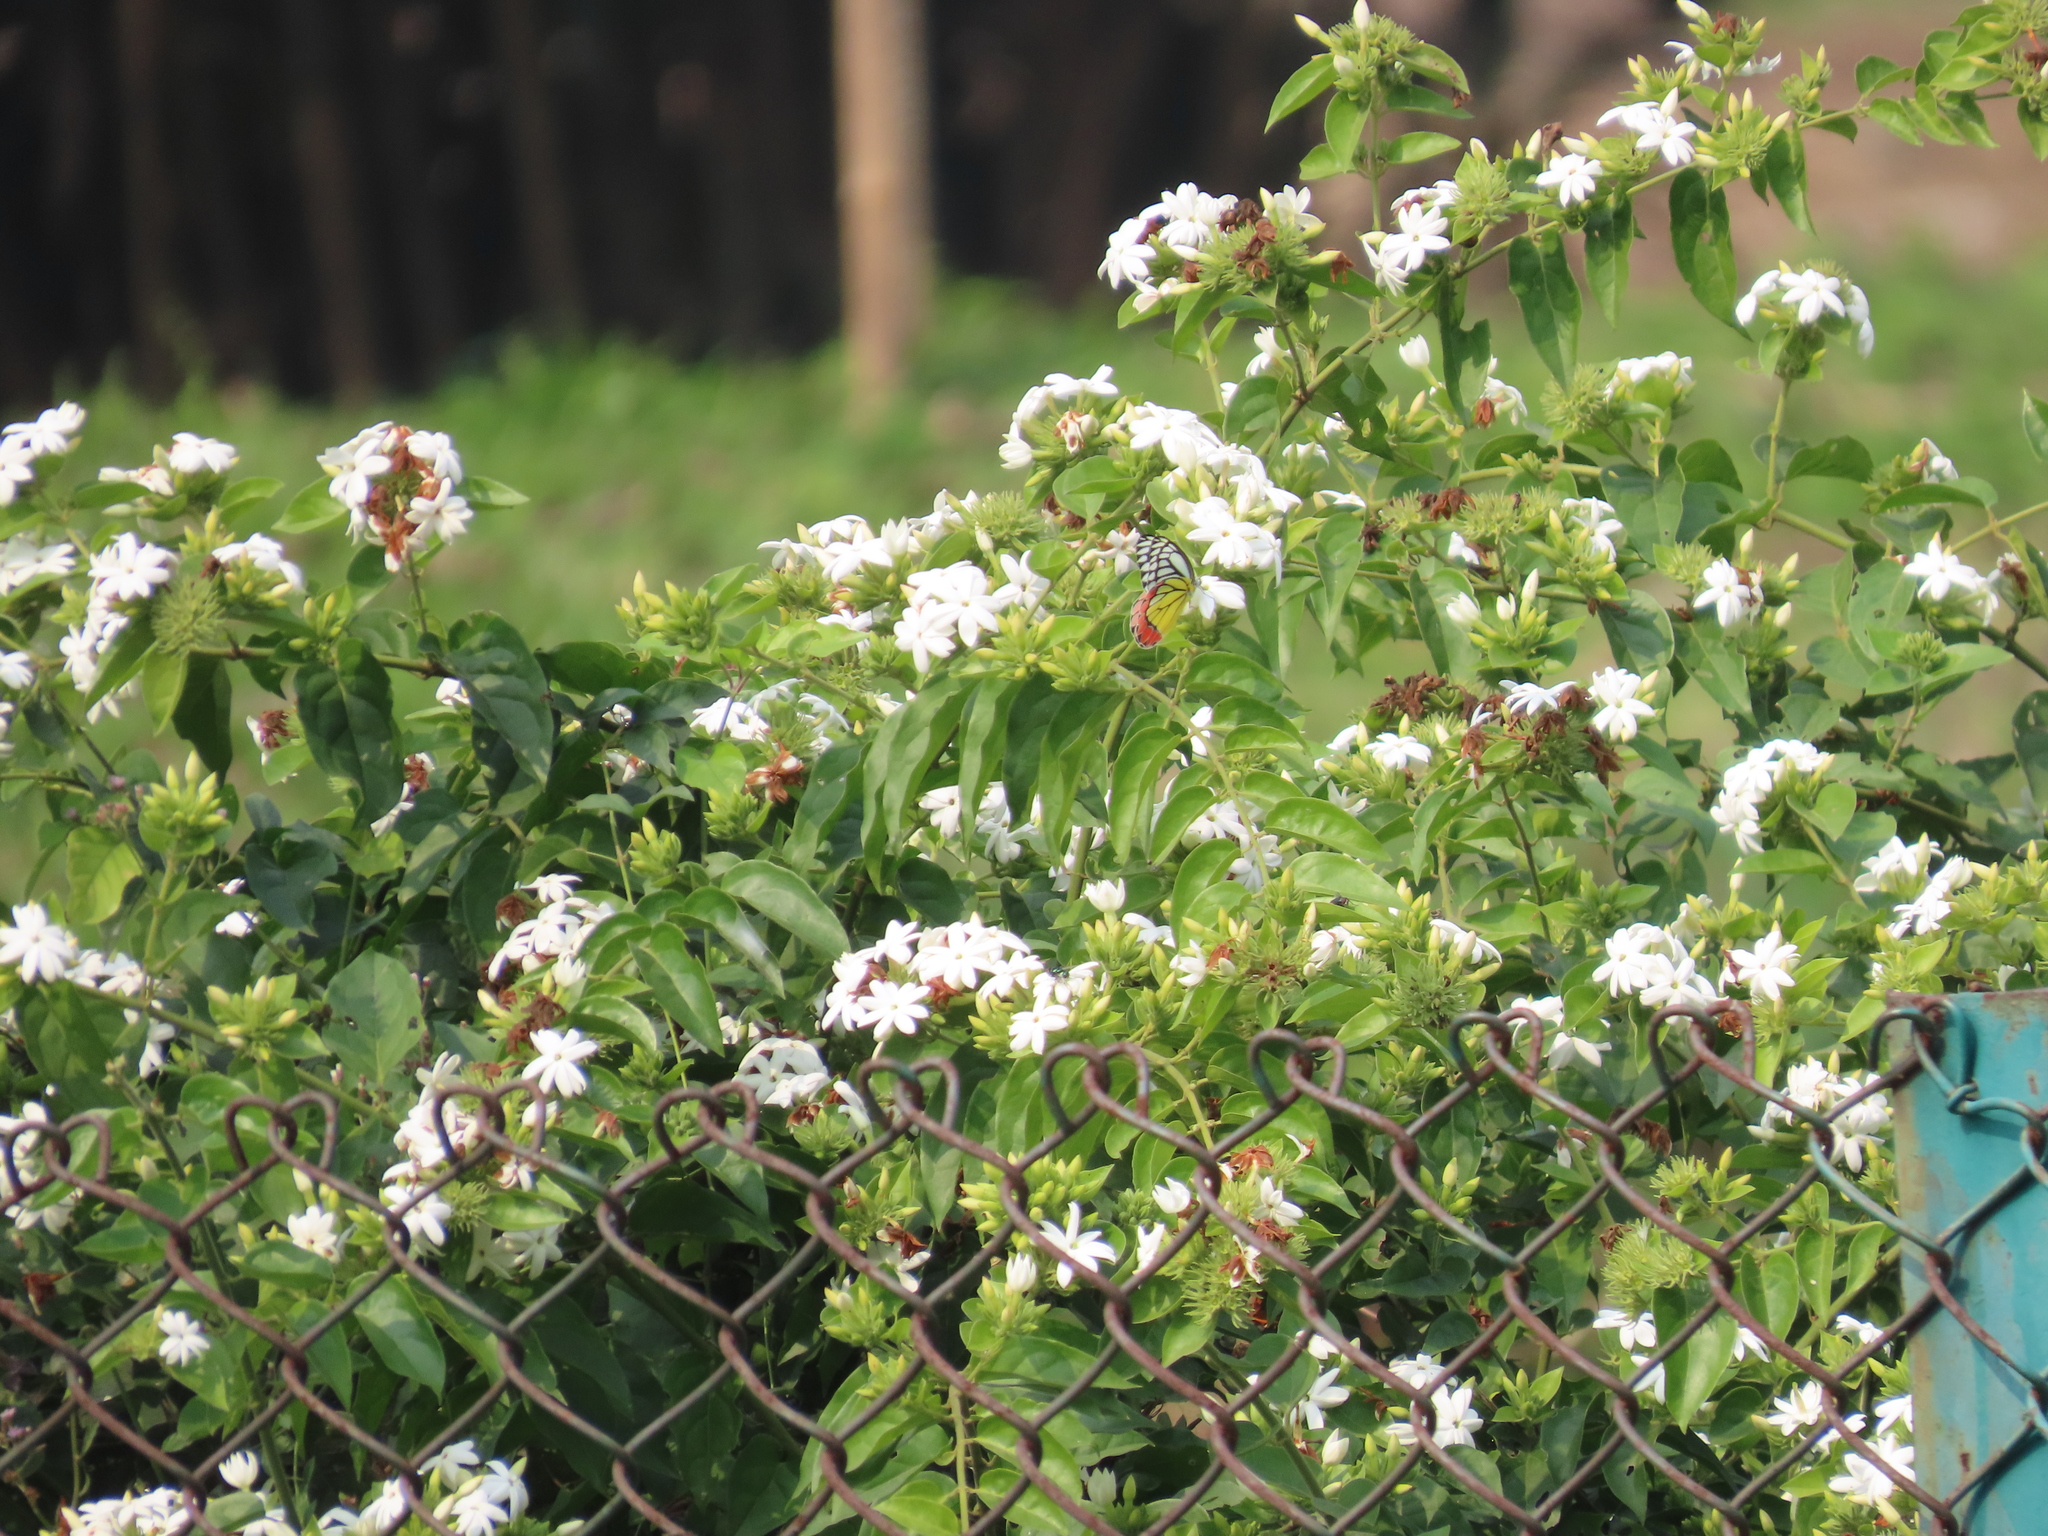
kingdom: Animalia
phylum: Arthropoda
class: Insecta
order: Lepidoptera
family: Pieridae
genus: Delias
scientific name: Delias eucharis
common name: Common jezebel
